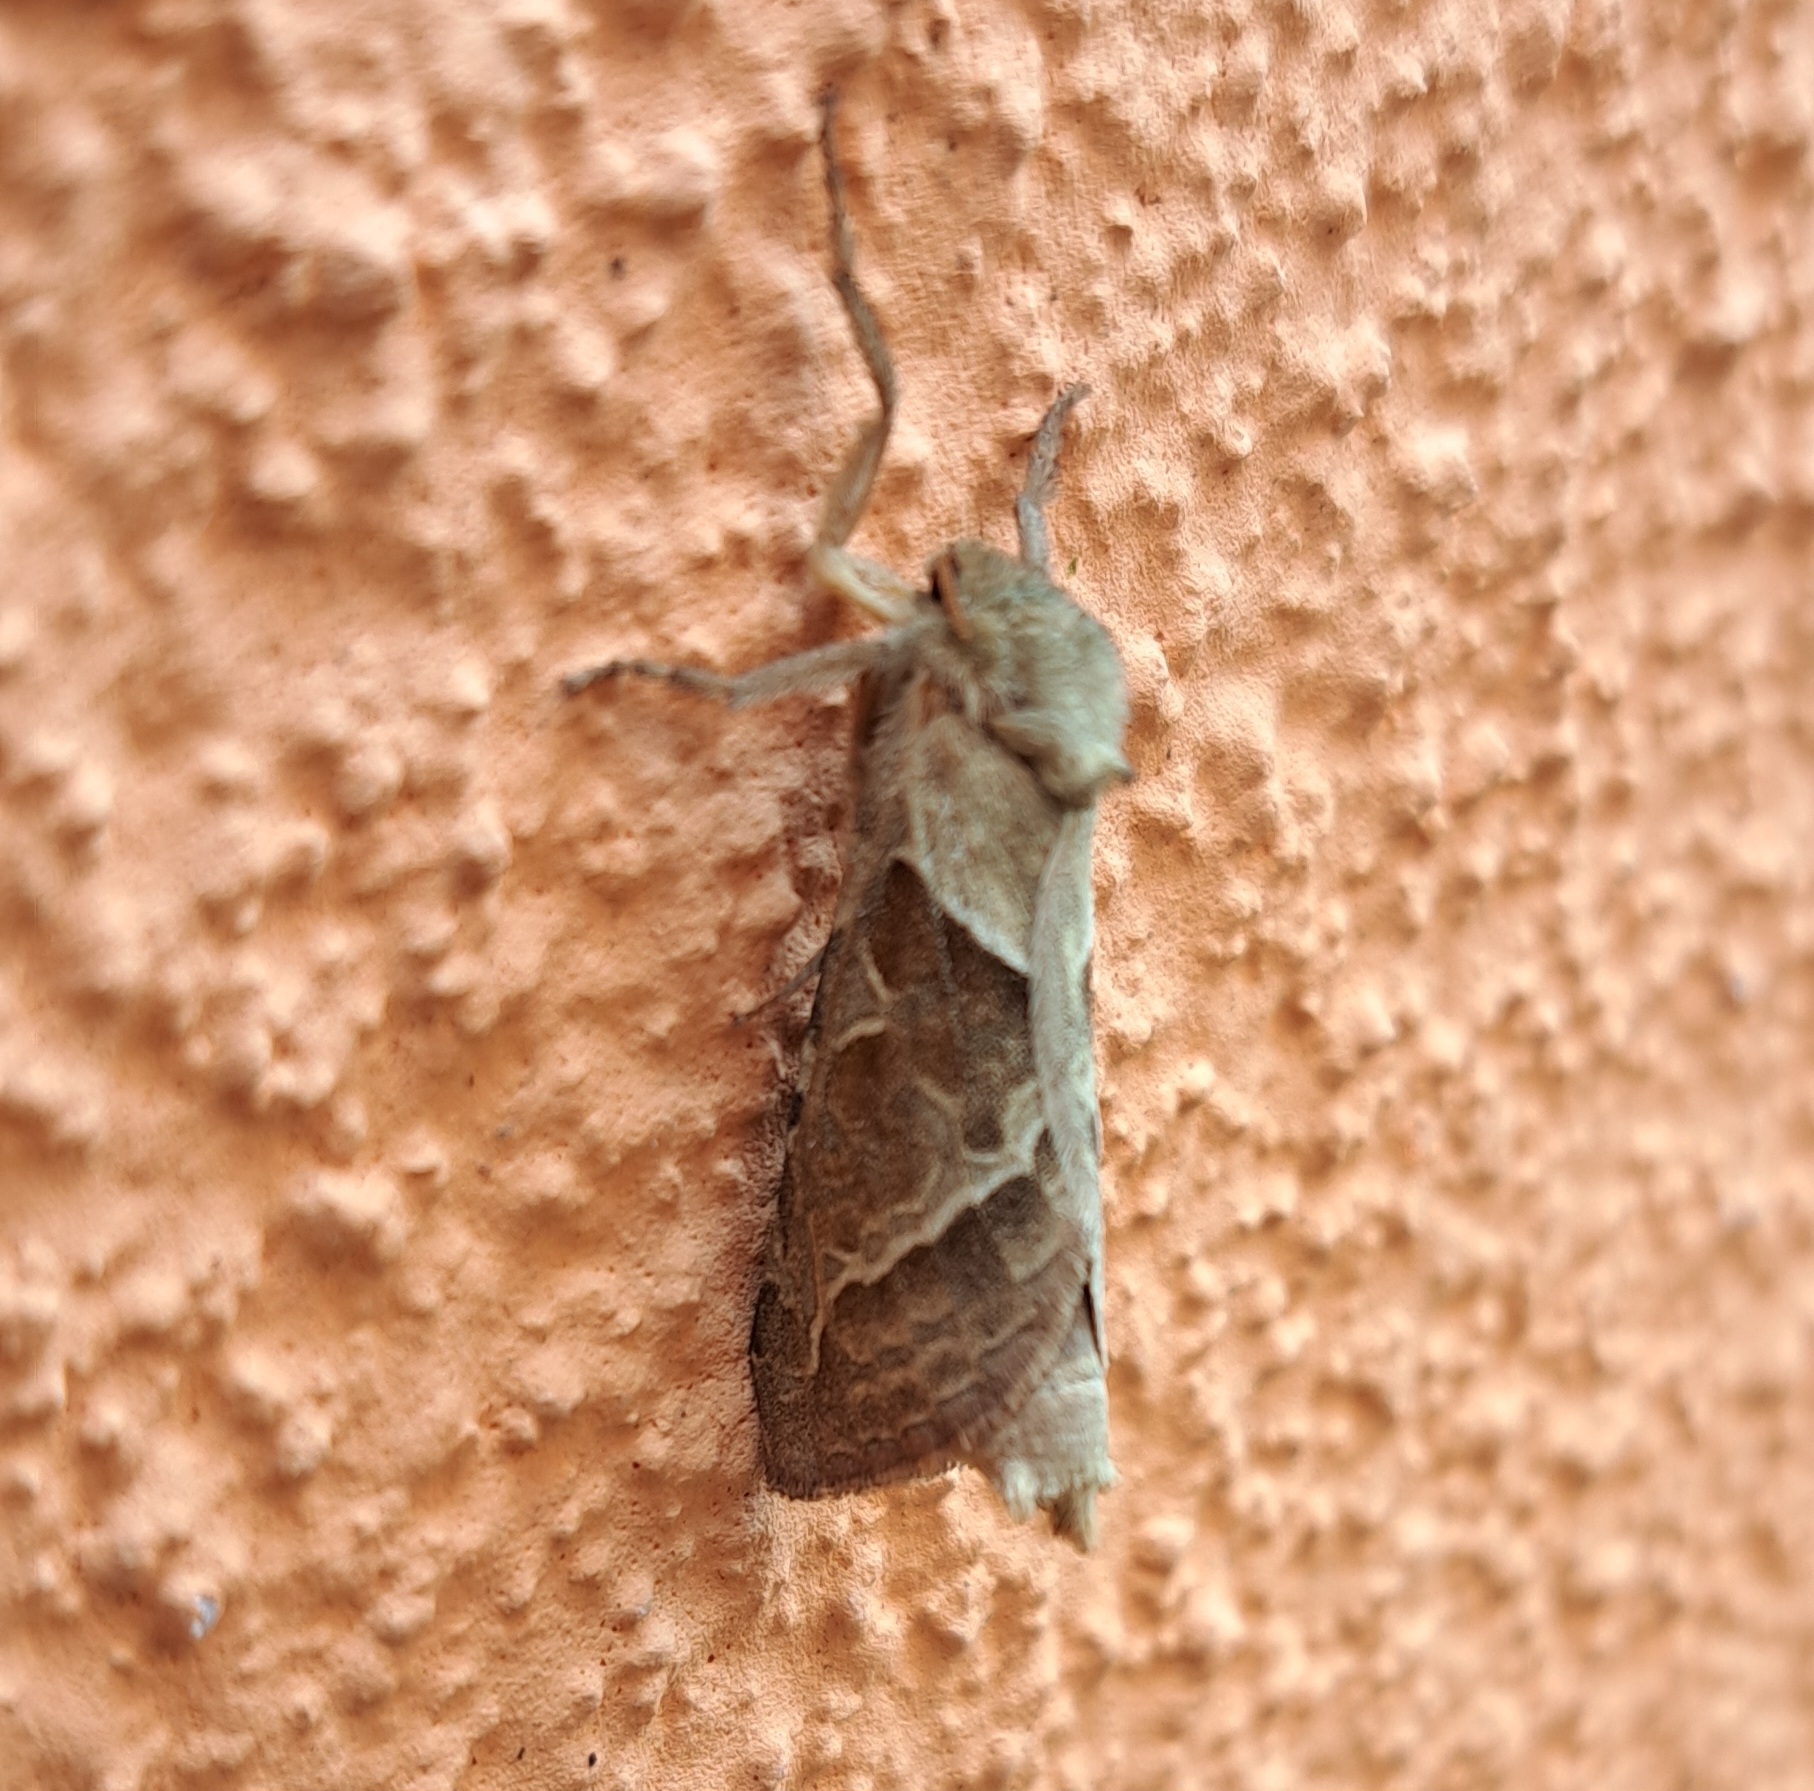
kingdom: Animalia
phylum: Arthropoda
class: Insecta
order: Lepidoptera
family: Hepialidae
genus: Triodia
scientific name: Triodia sylvina
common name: Orange swift
